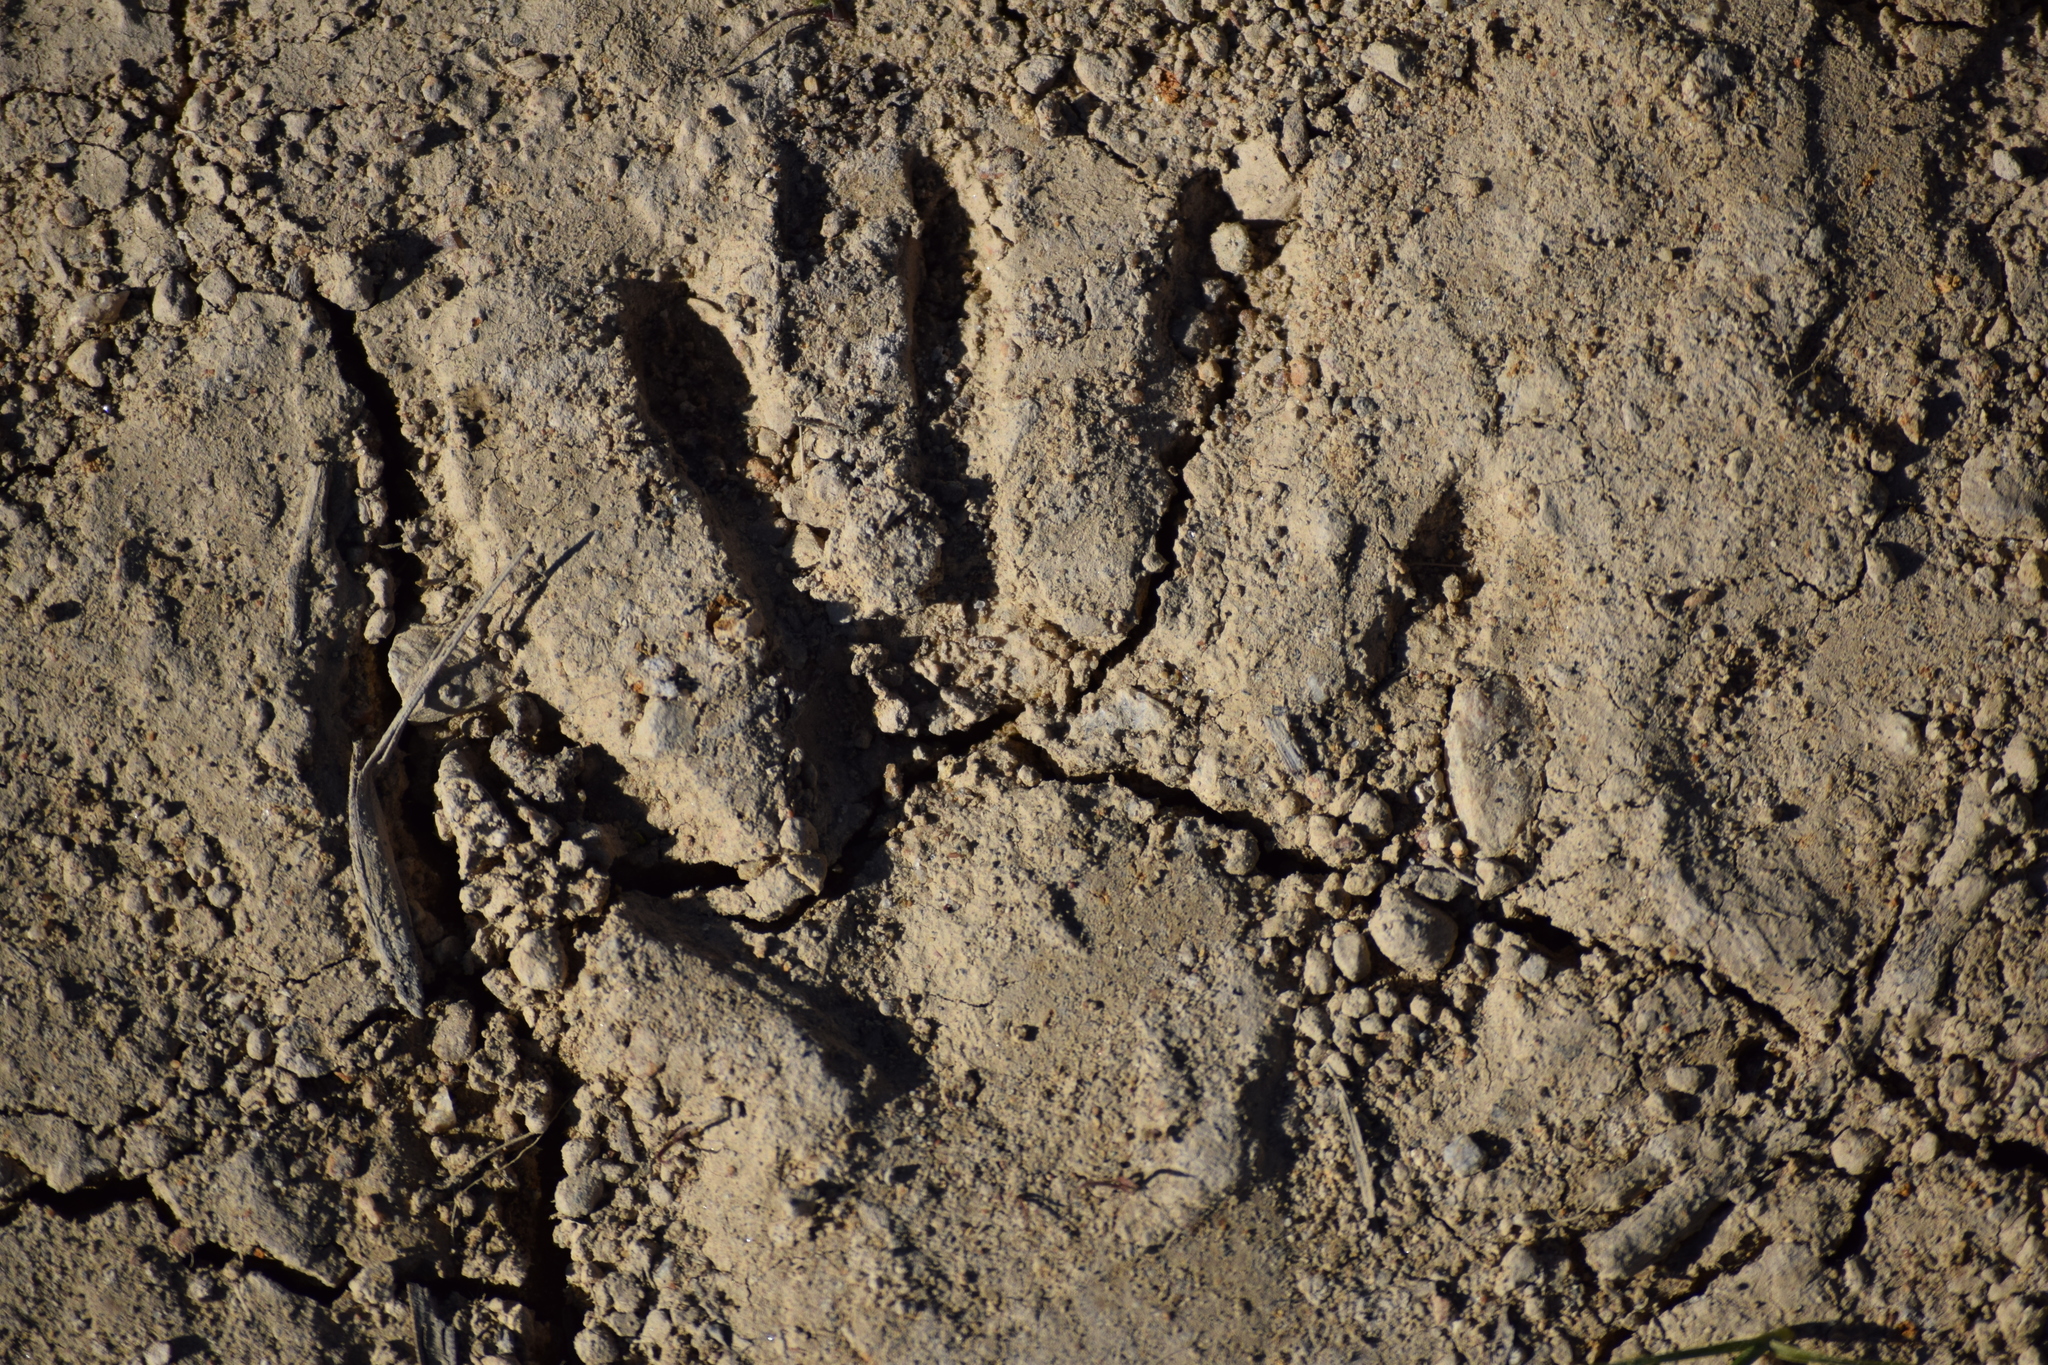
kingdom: Animalia
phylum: Chordata
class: Mammalia
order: Carnivora
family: Procyonidae
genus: Procyon
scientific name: Procyon lotor
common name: Raccoon
